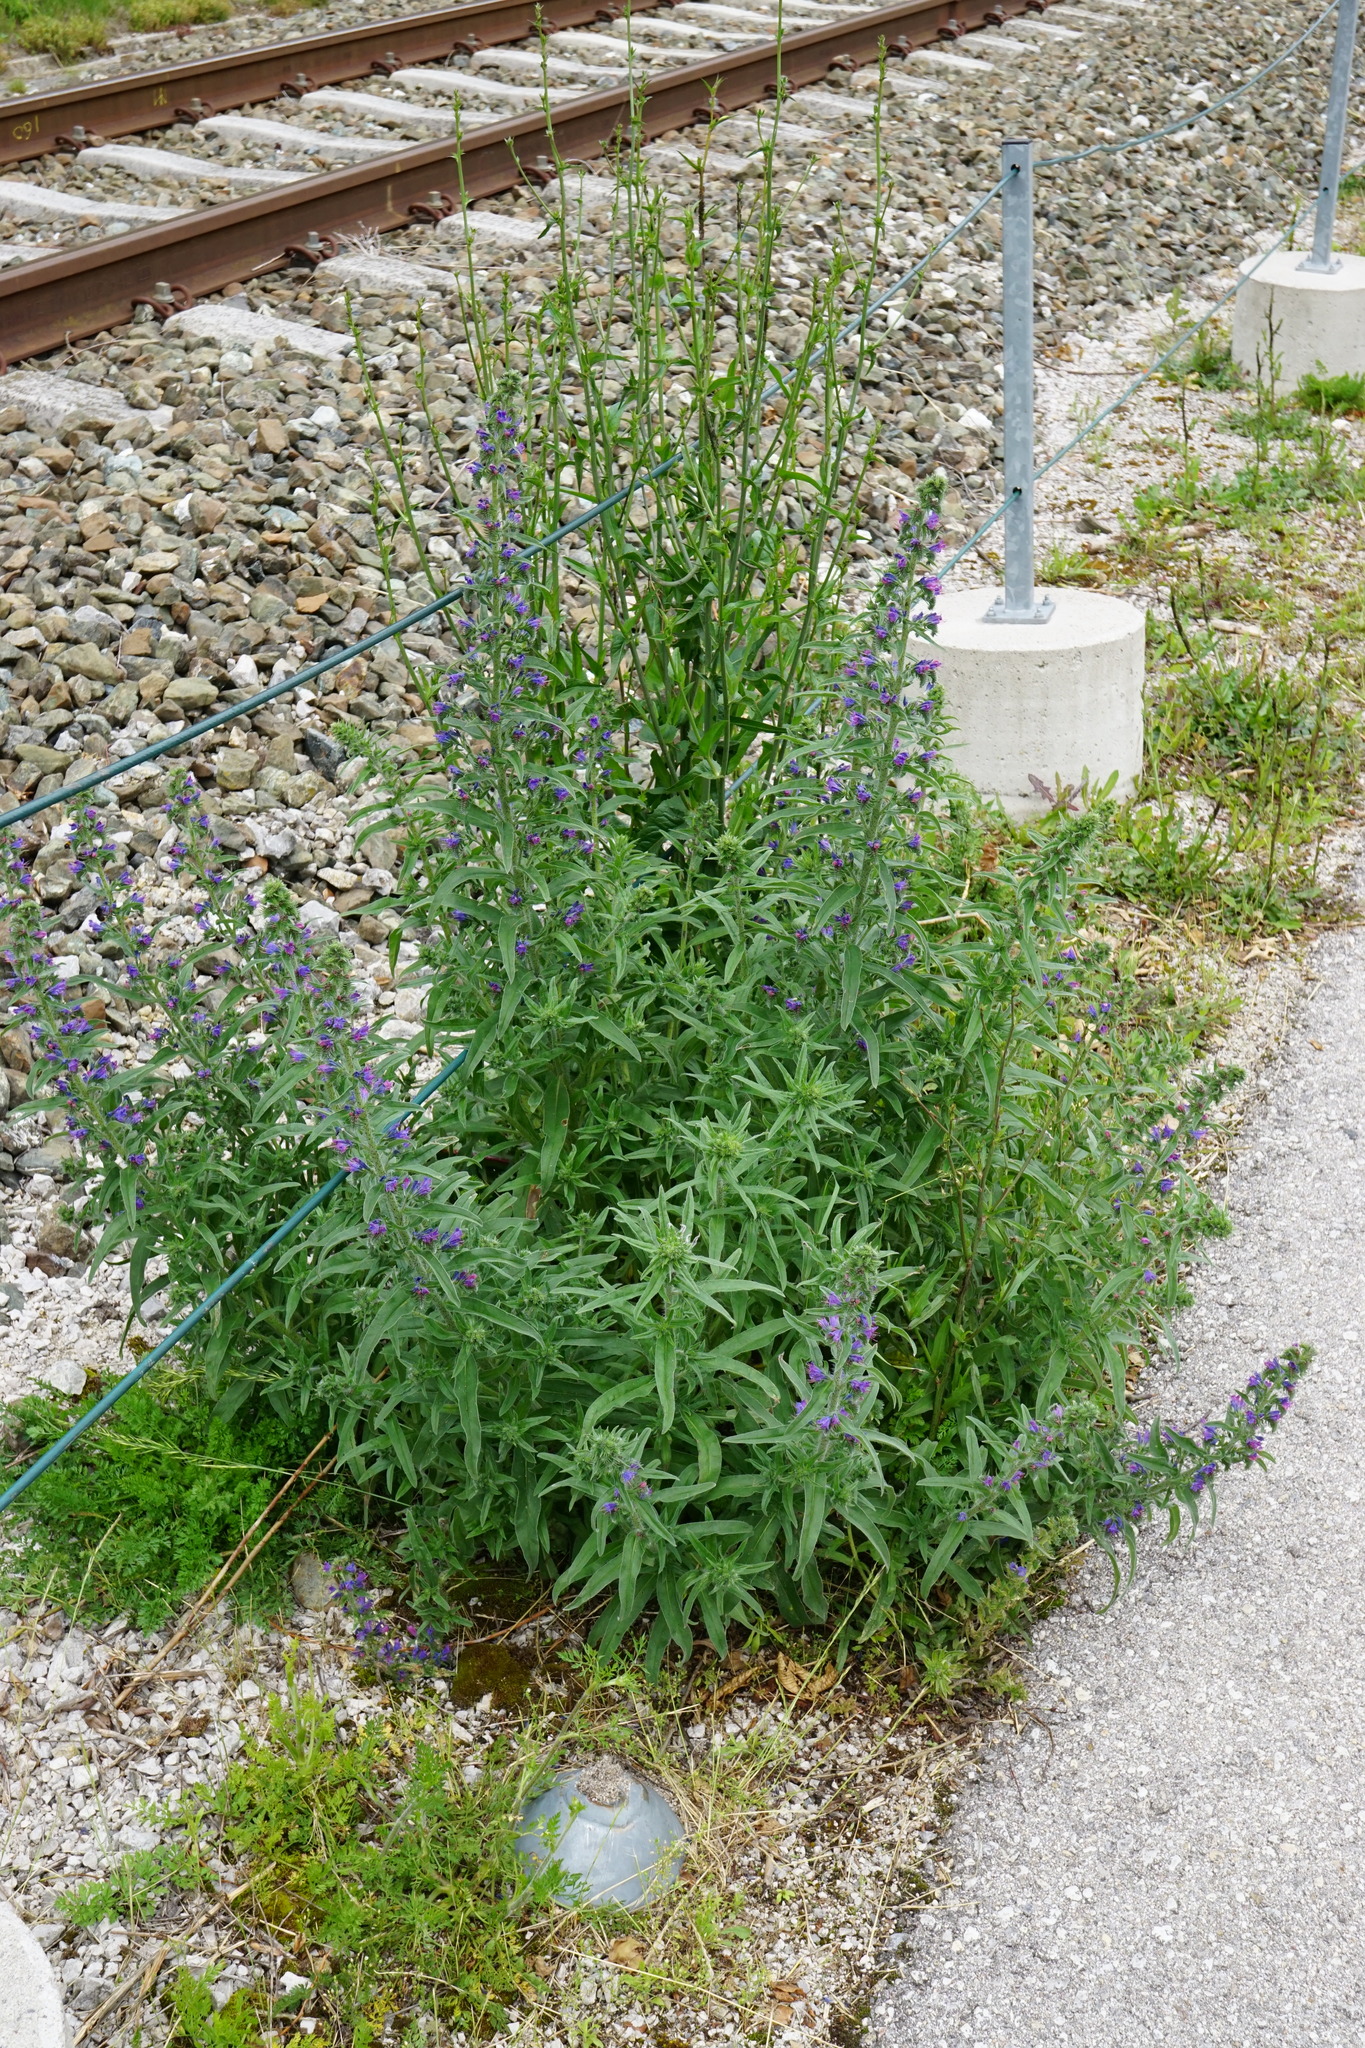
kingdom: Plantae
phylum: Tracheophyta
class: Magnoliopsida
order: Boraginales
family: Boraginaceae
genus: Echium
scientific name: Echium vulgare
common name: Common viper's bugloss
